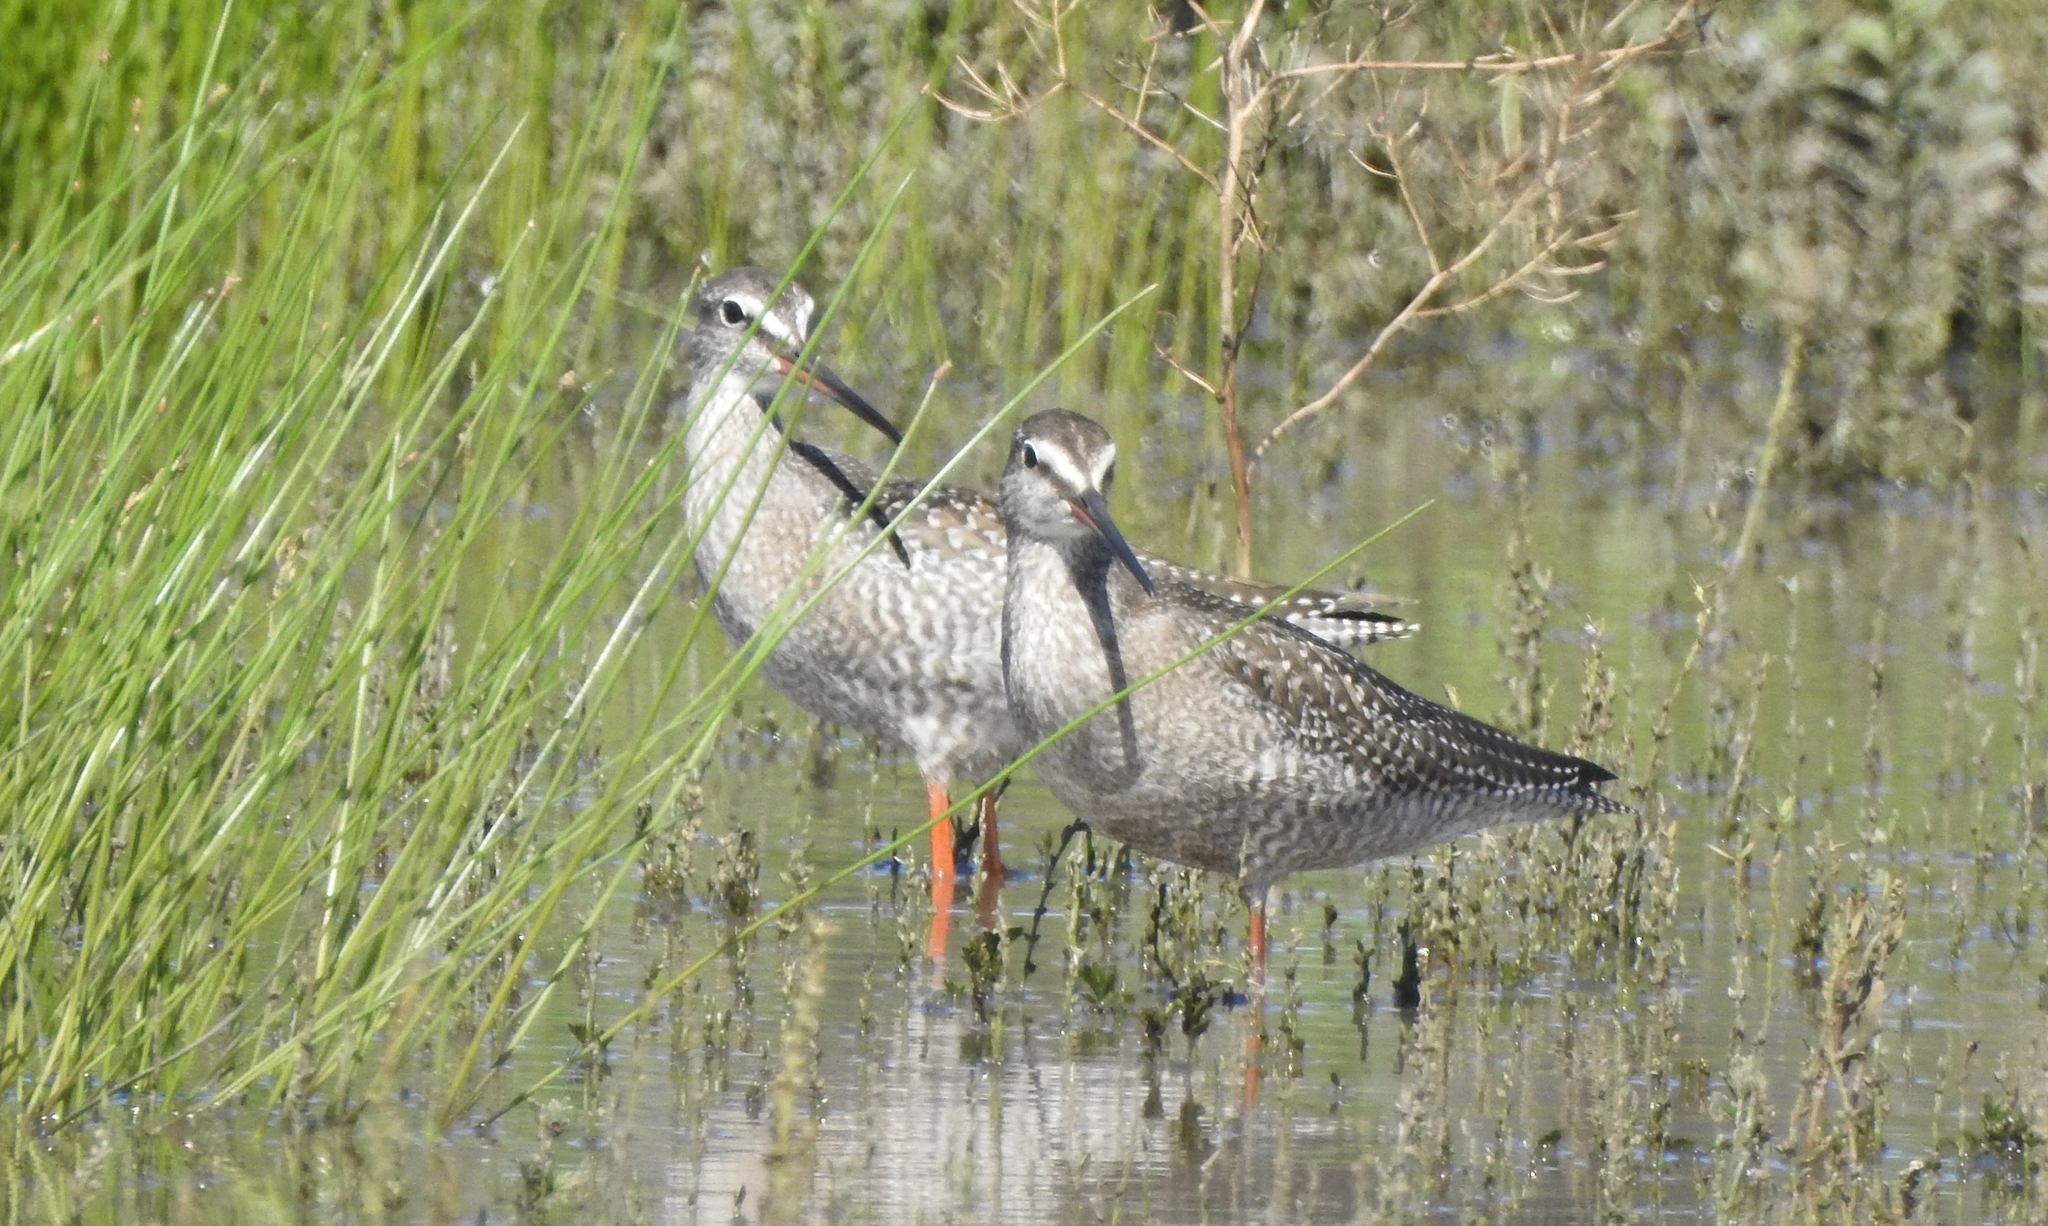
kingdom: Animalia
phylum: Chordata
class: Aves
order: Charadriiformes
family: Scolopacidae
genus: Tringa
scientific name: Tringa erythropus
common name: Spotted redshank
